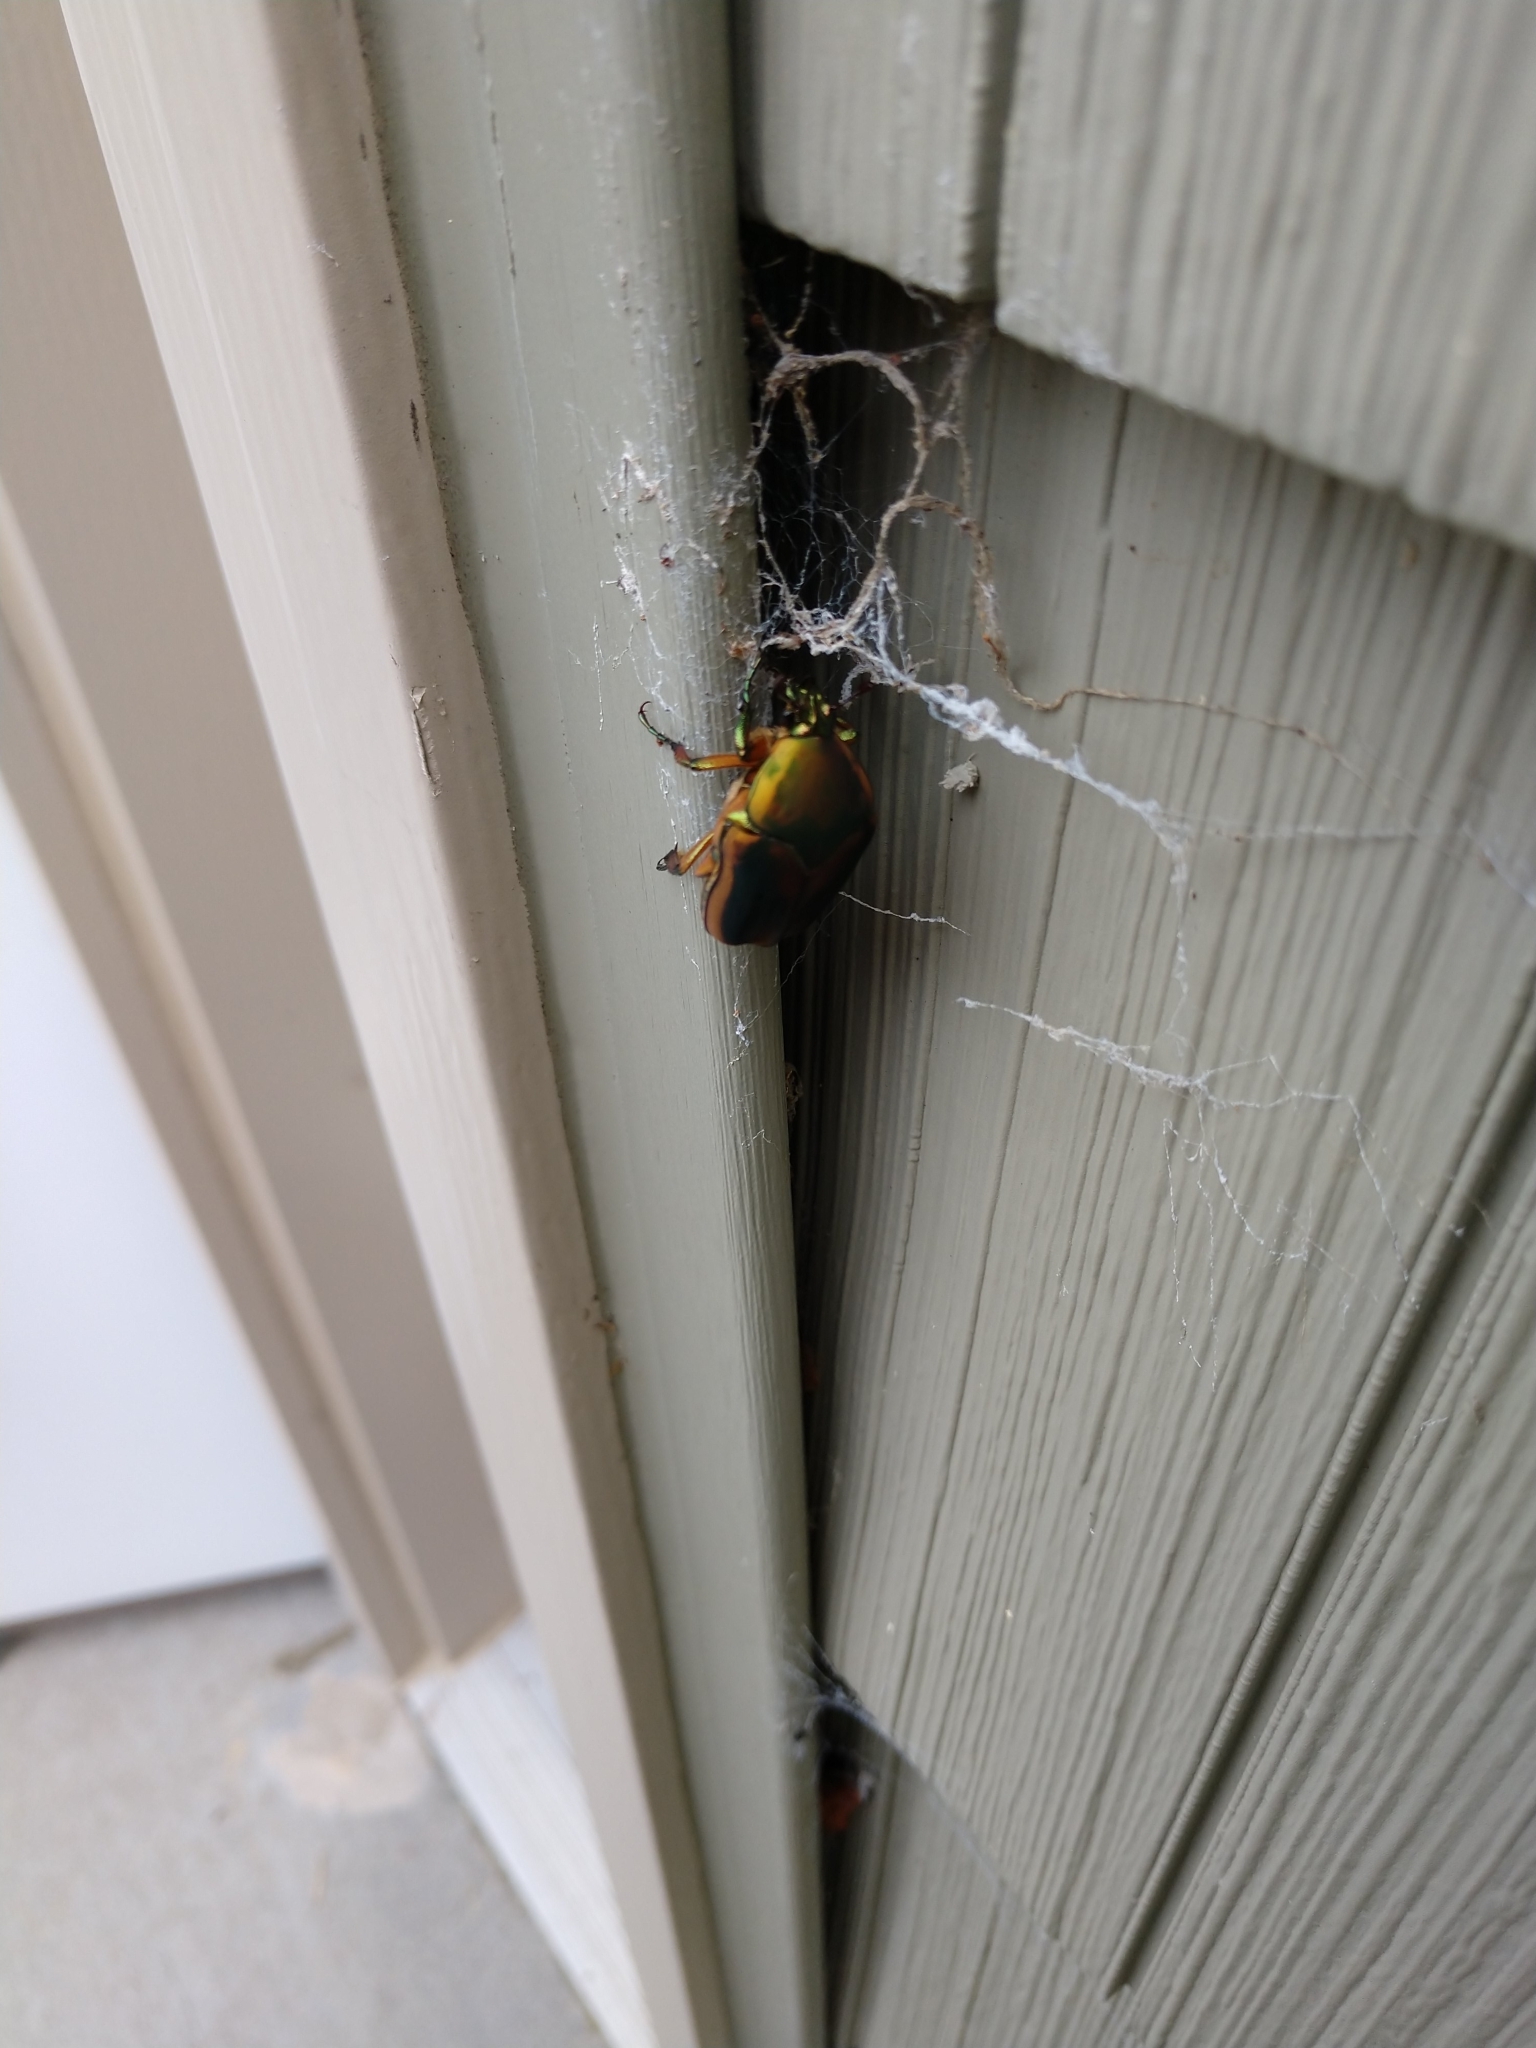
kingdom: Animalia
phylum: Arthropoda
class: Insecta
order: Coleoptera
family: Scarabaeidae
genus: Cotinis
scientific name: Cotinis nitida
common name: Common green june beetle
